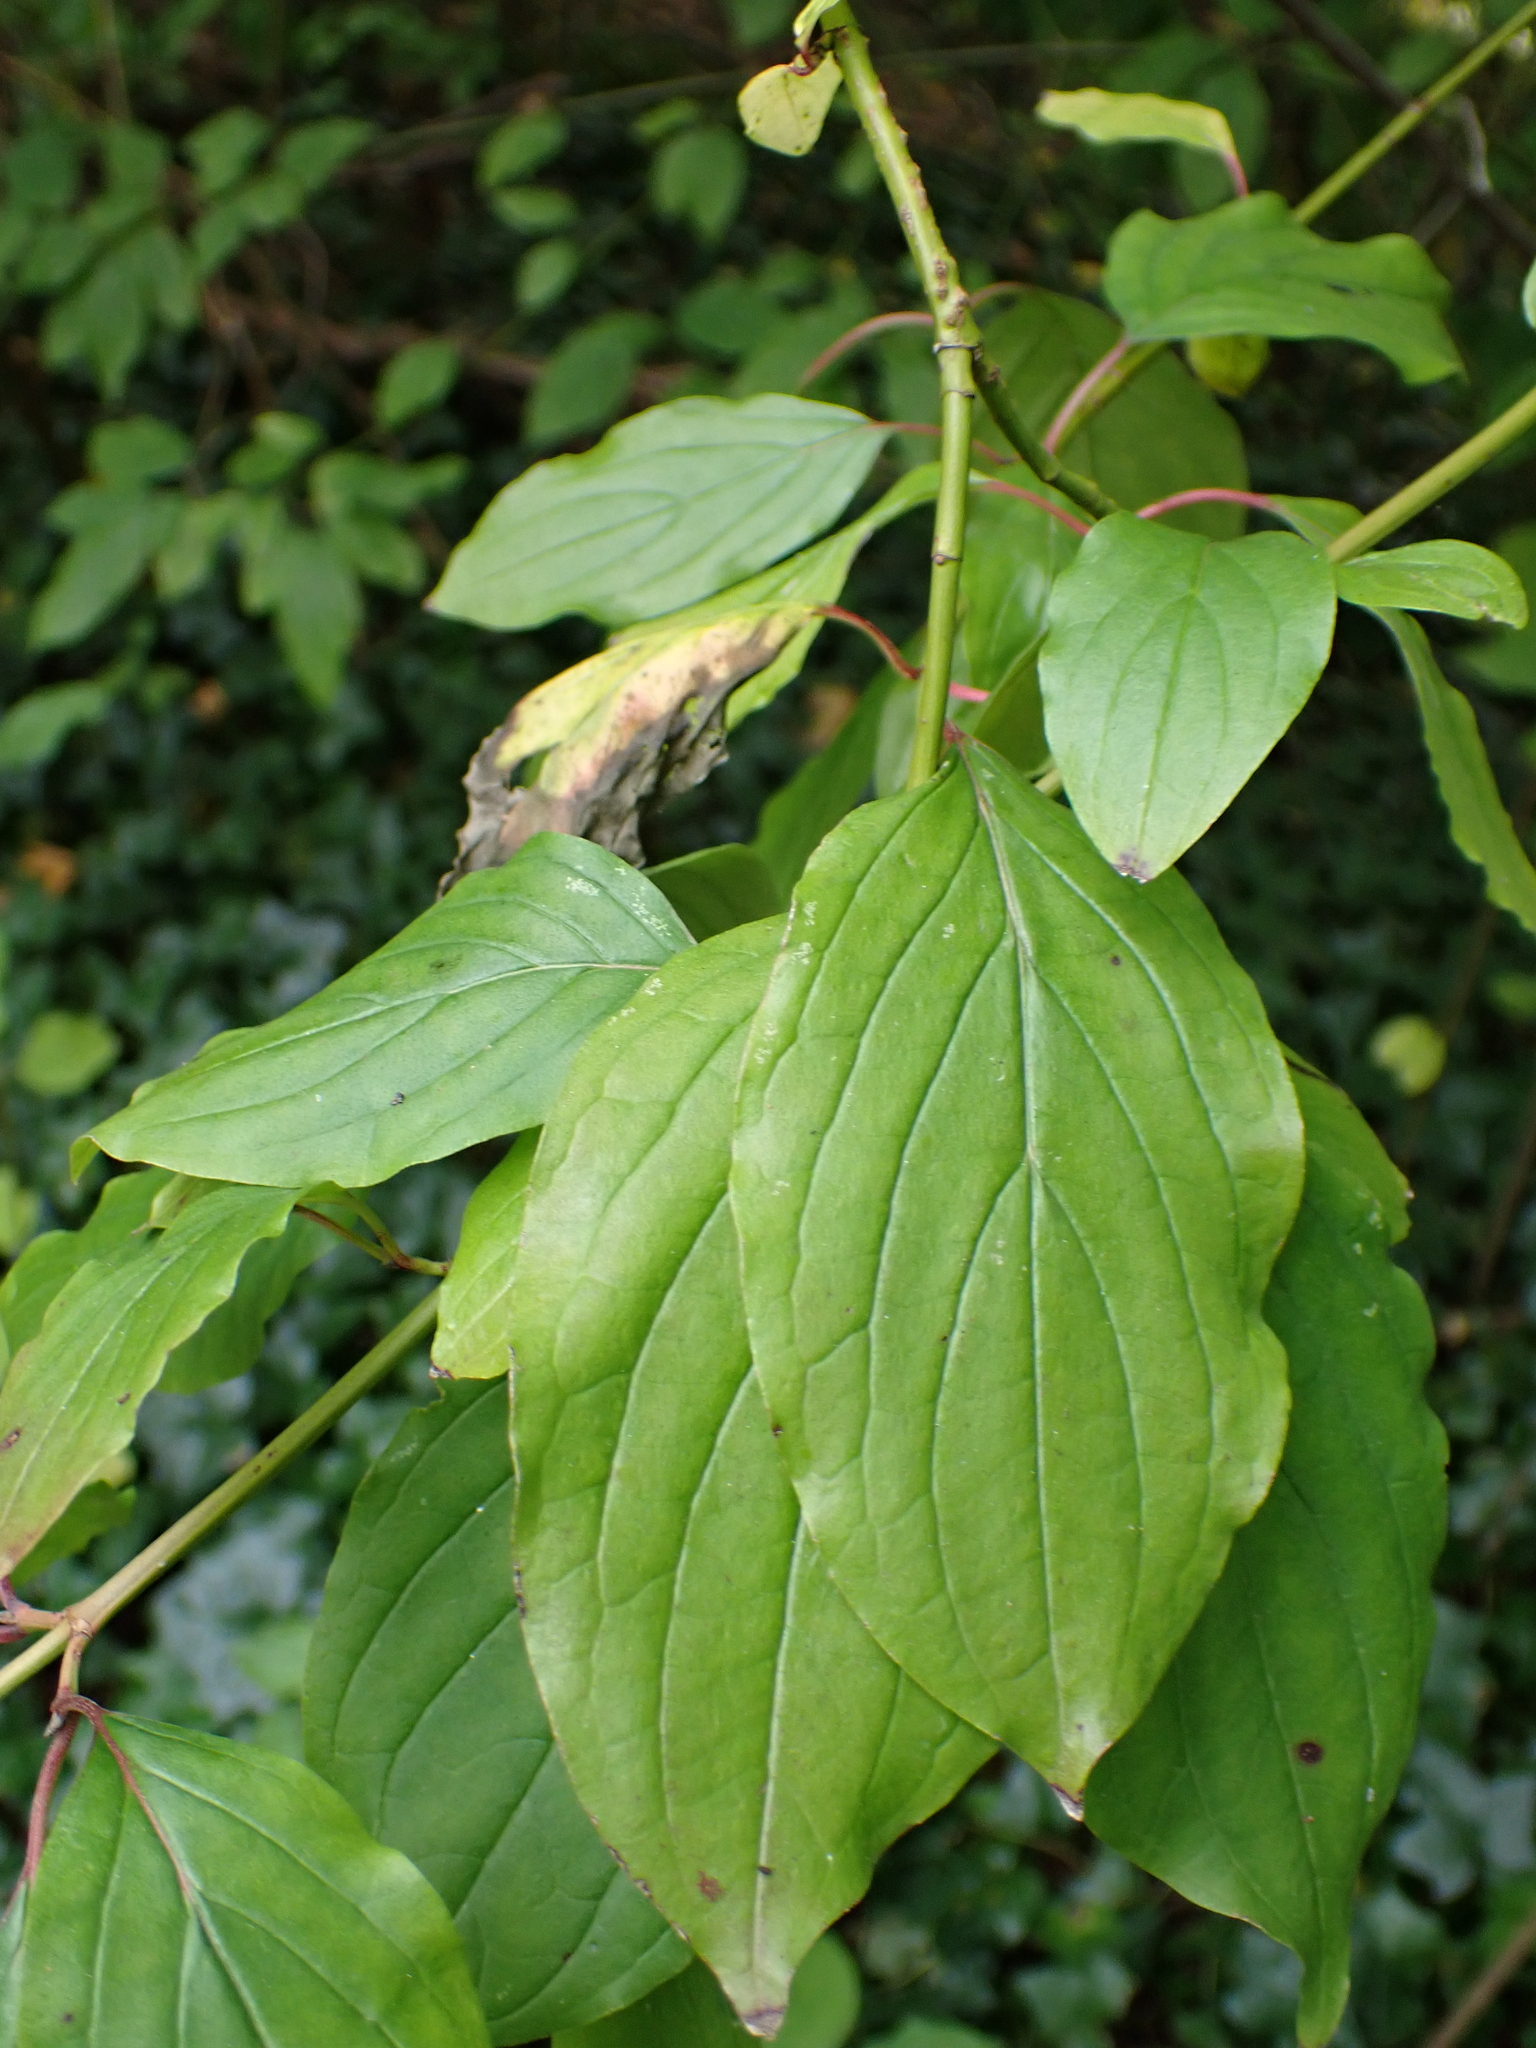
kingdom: Plantae
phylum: Tracheophyta
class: Magnoliopsida
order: Cornales
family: Cornaceae
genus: Cornus
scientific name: Cornus sanguinea
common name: Dogwood
